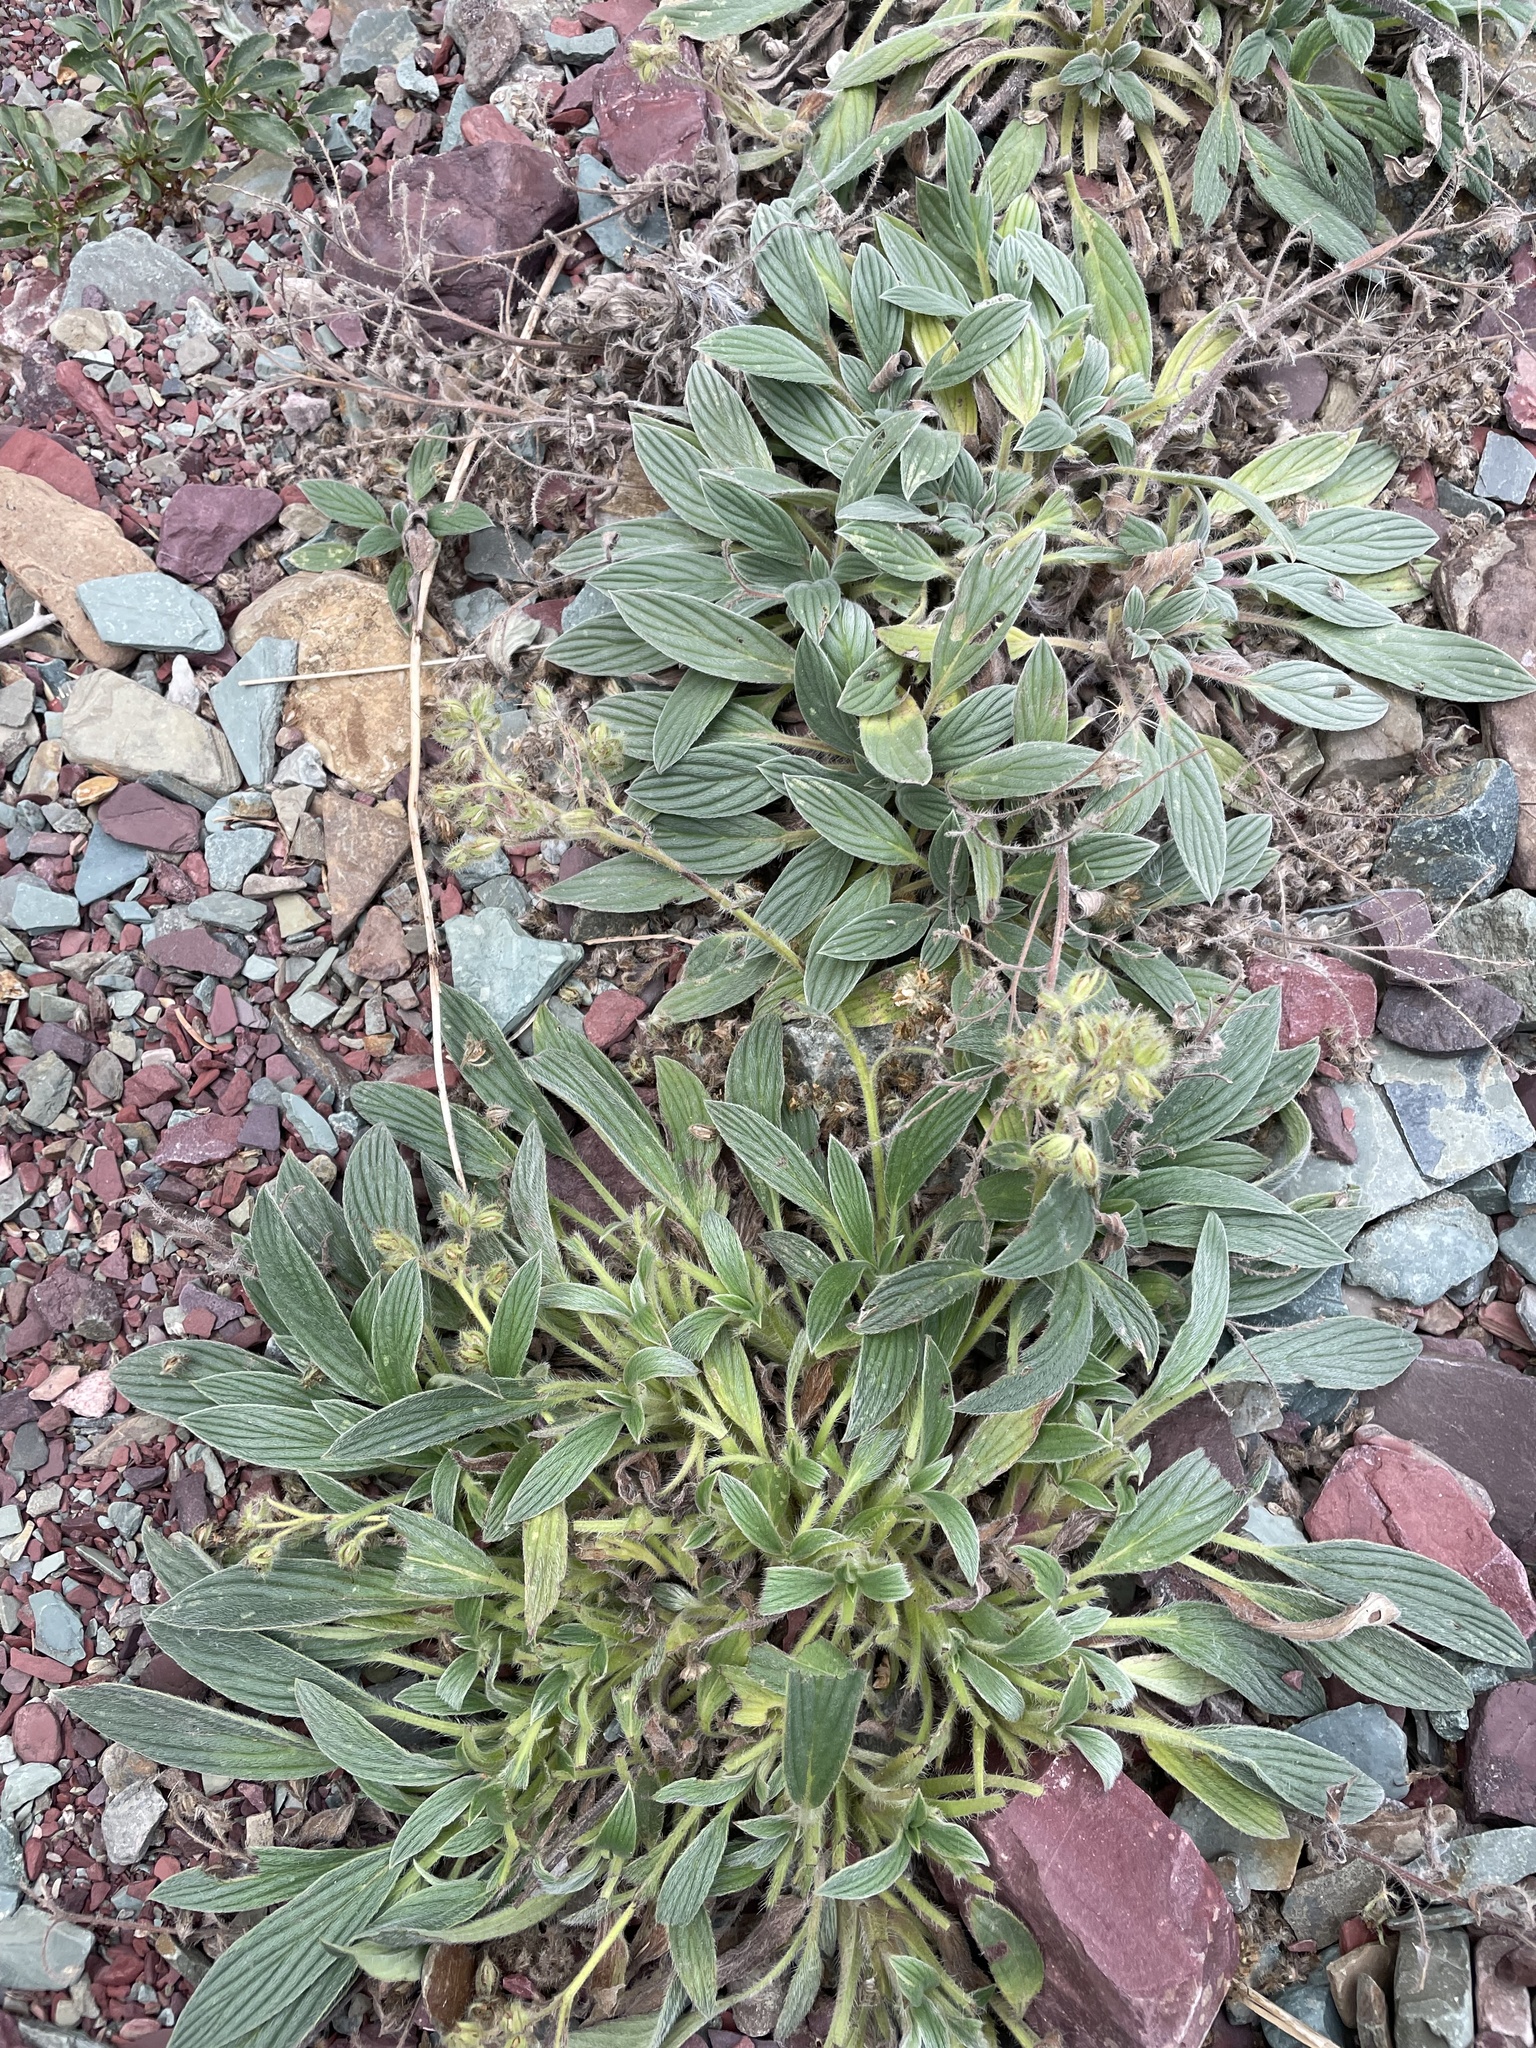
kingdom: Plantae
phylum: Tracheophyta
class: Magnoliopsida
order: Boraginales
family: Hydrophyllaceae
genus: Phacelia
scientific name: Phacelia hastata
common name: Silver-leaved phacelia
